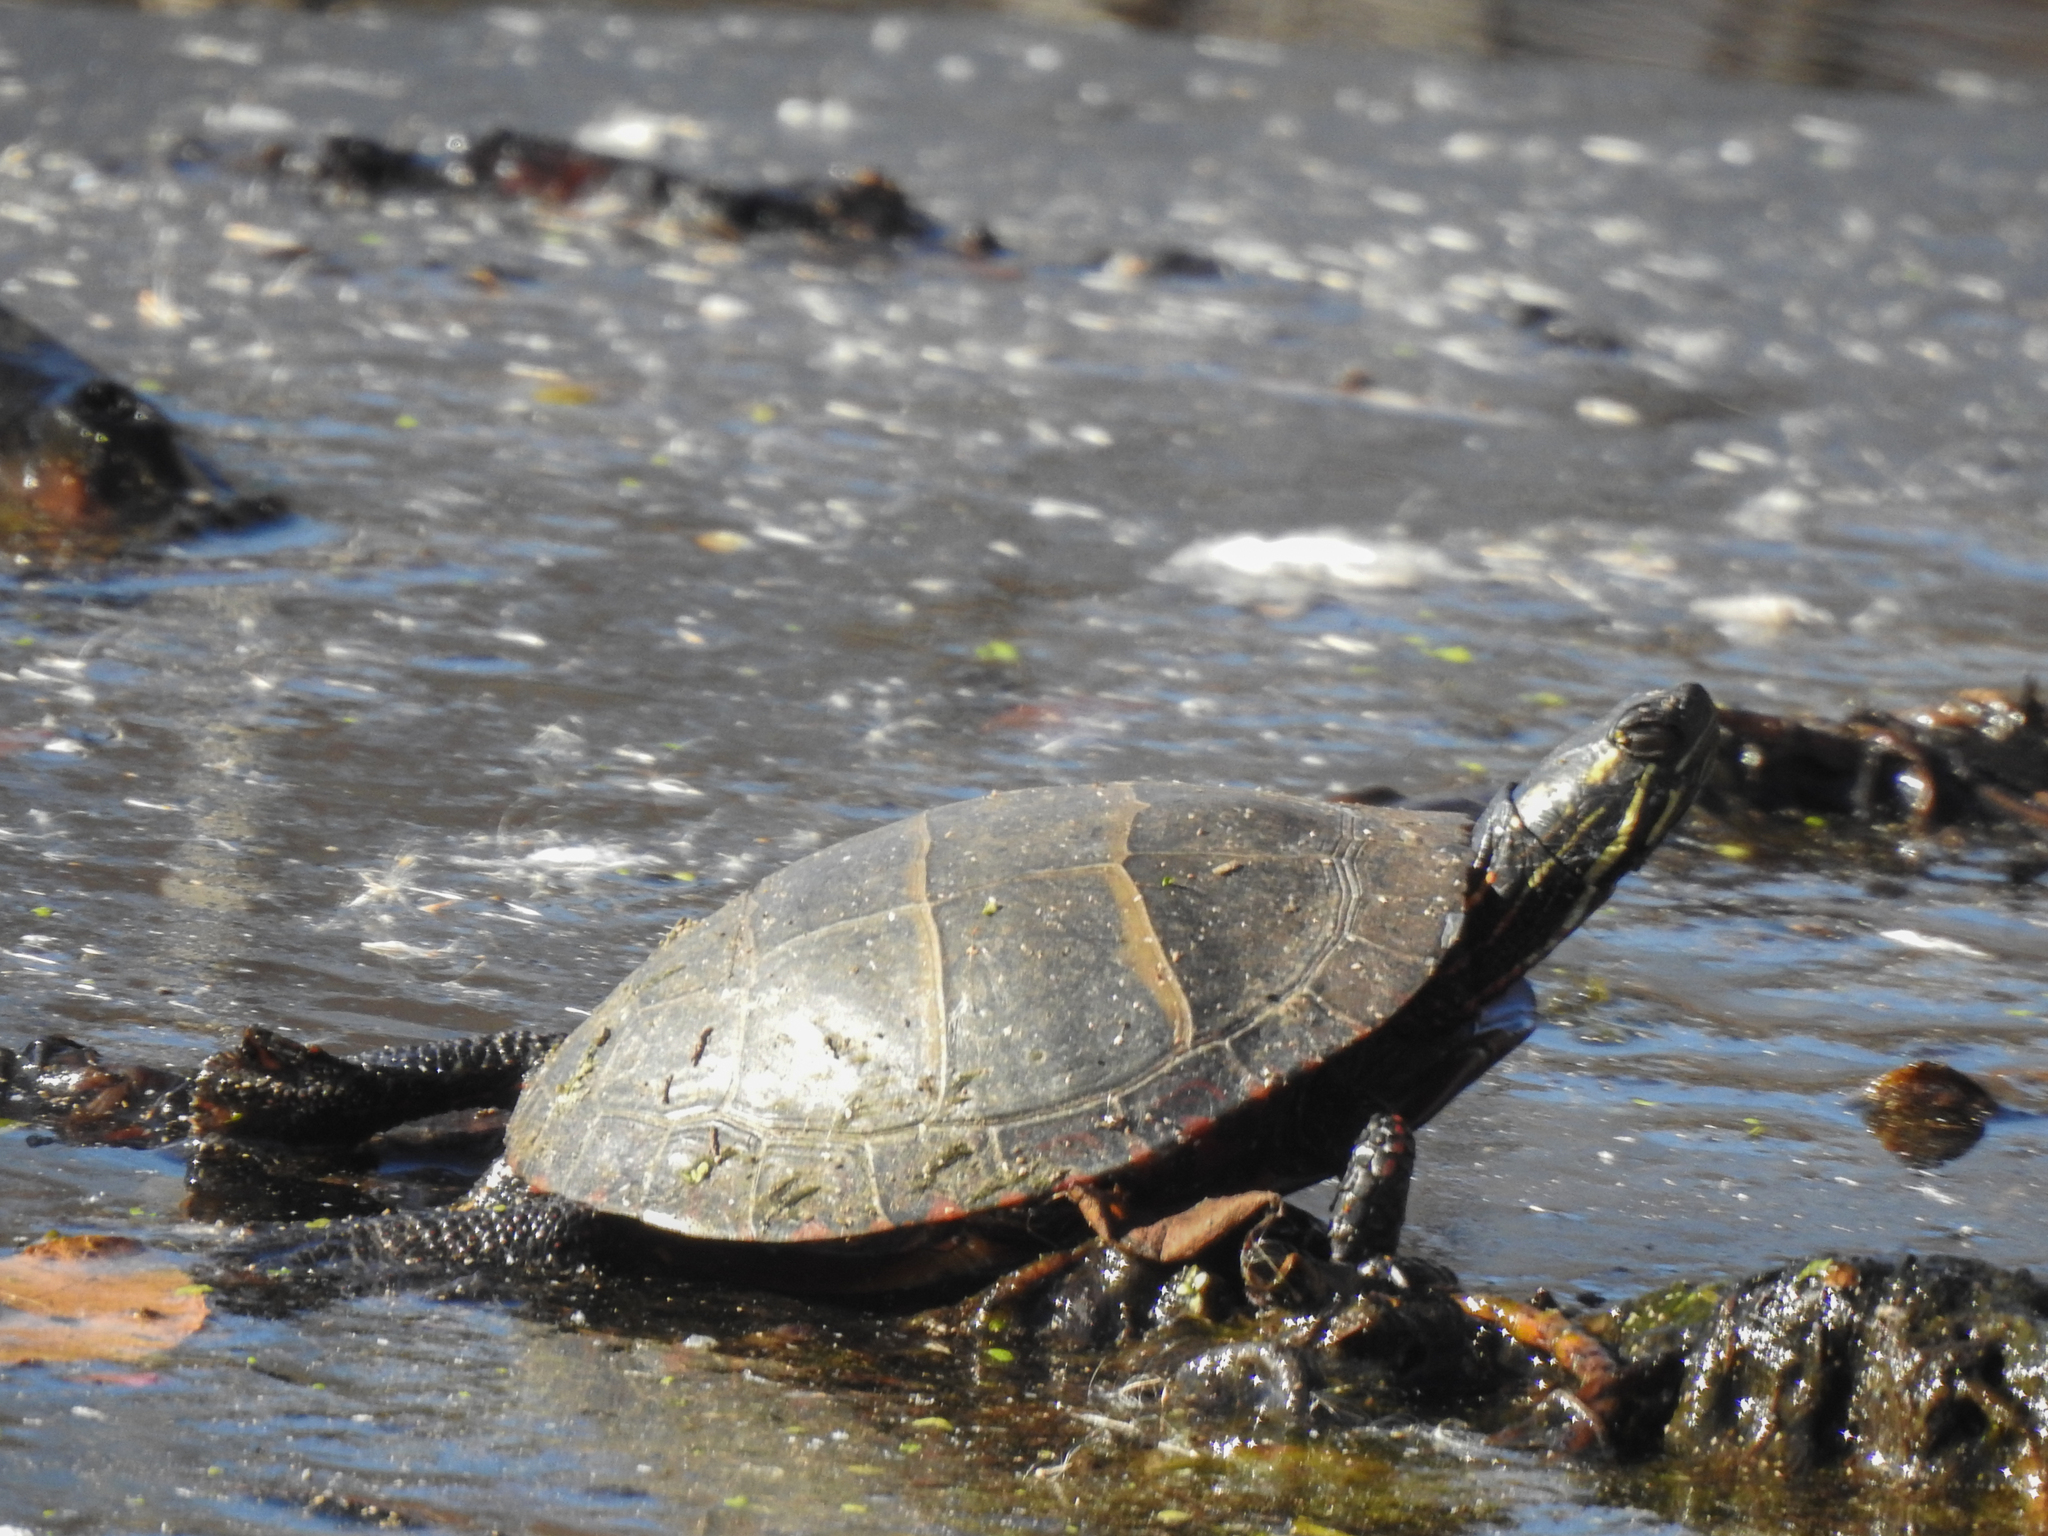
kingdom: Animalia
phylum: Chordata
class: Testudines
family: Emydidae
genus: Chrysemys
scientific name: Chrysemys picta
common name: Painted turtle
